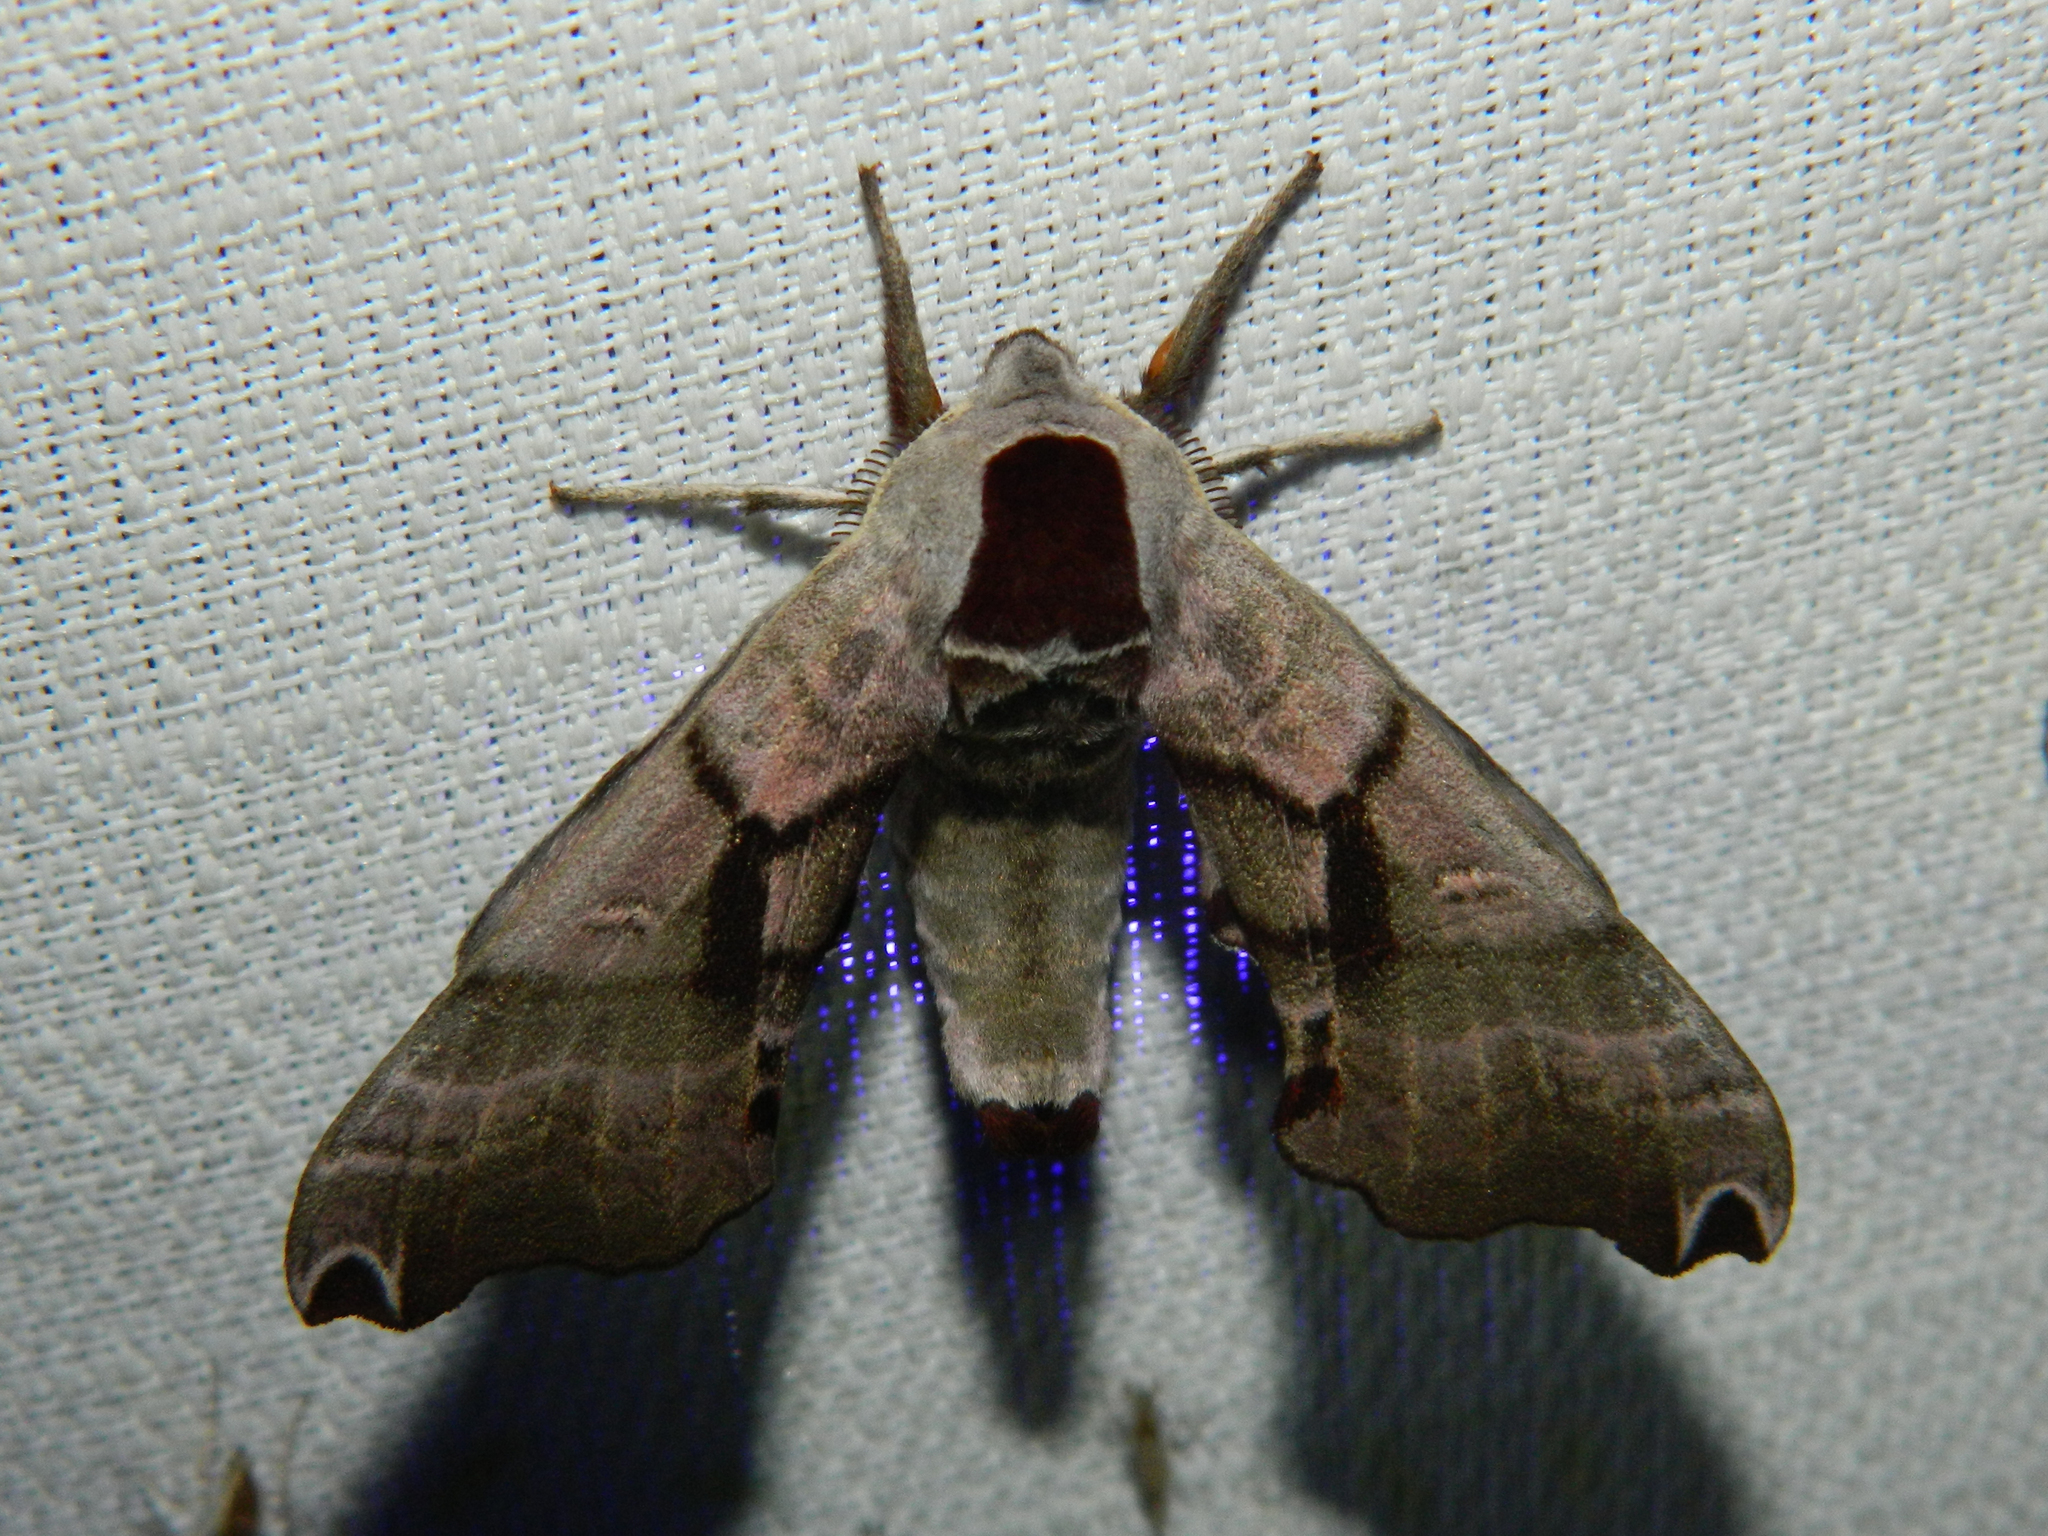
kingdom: Animalia
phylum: Arthropoda
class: Insecta
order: Lepidoptera
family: Sphingidae
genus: Smerinthus
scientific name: Smerinthus jamaicensis
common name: Twin spotted sphinx
